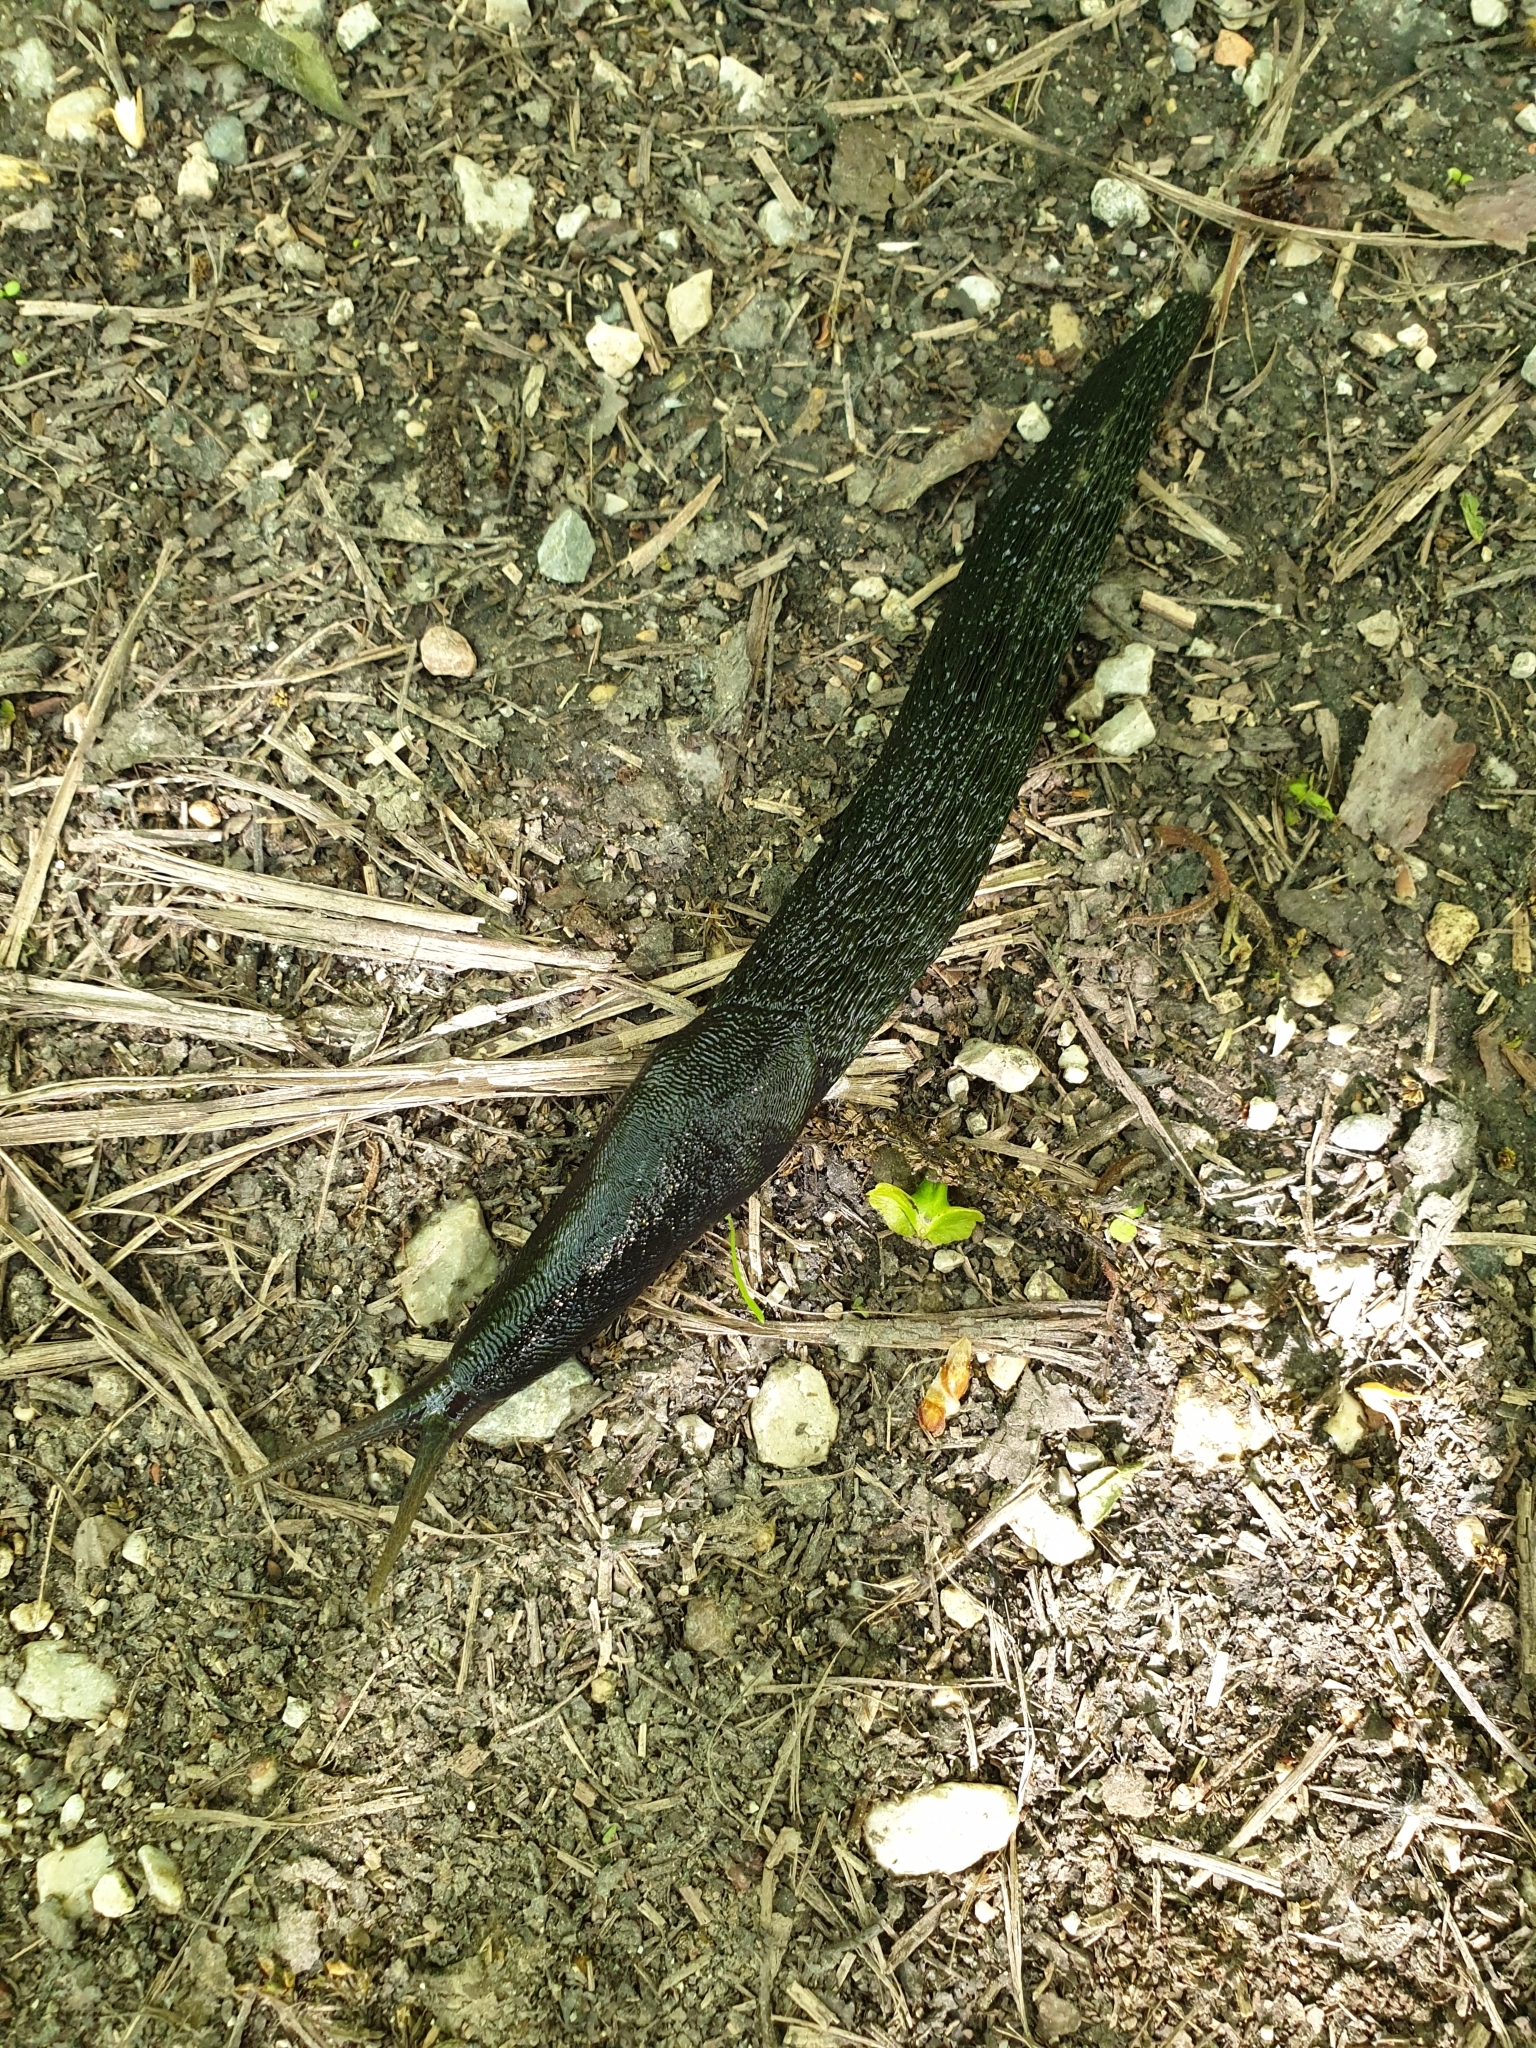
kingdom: Animalia
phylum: Mollusca
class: Gastropoda
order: Stylommatophora
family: Limacidae
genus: Limax
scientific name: Limax cinereoniger
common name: Ash-black slug
